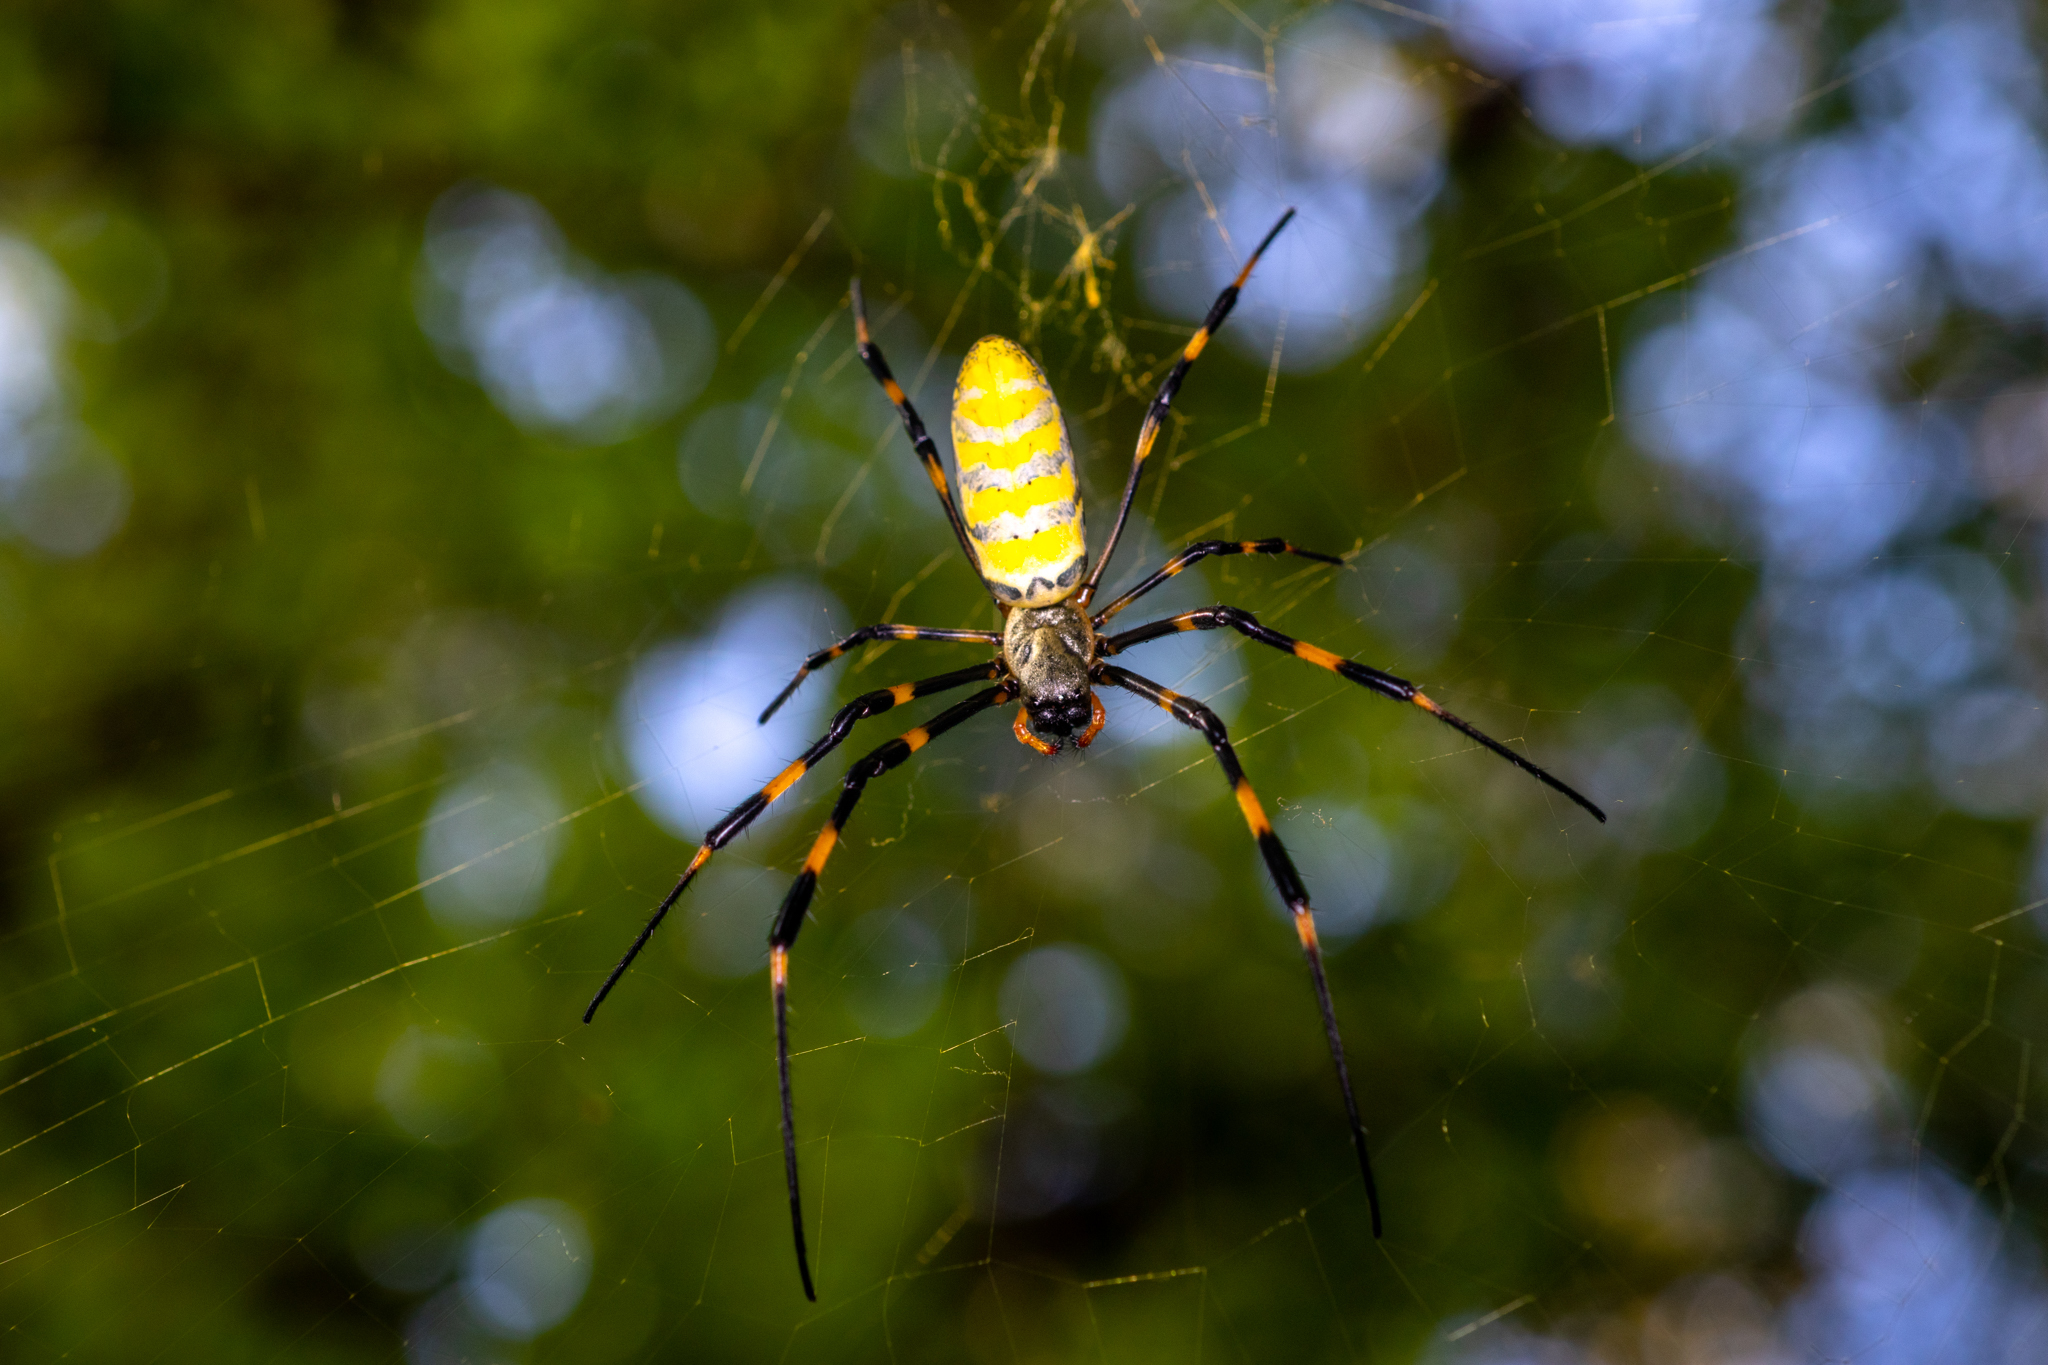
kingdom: Animalia
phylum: Arthropoda
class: Arachnida
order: Araneae
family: Araneidae
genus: Trichonephila
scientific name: Trichonephila clavata
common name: Jorō spider
